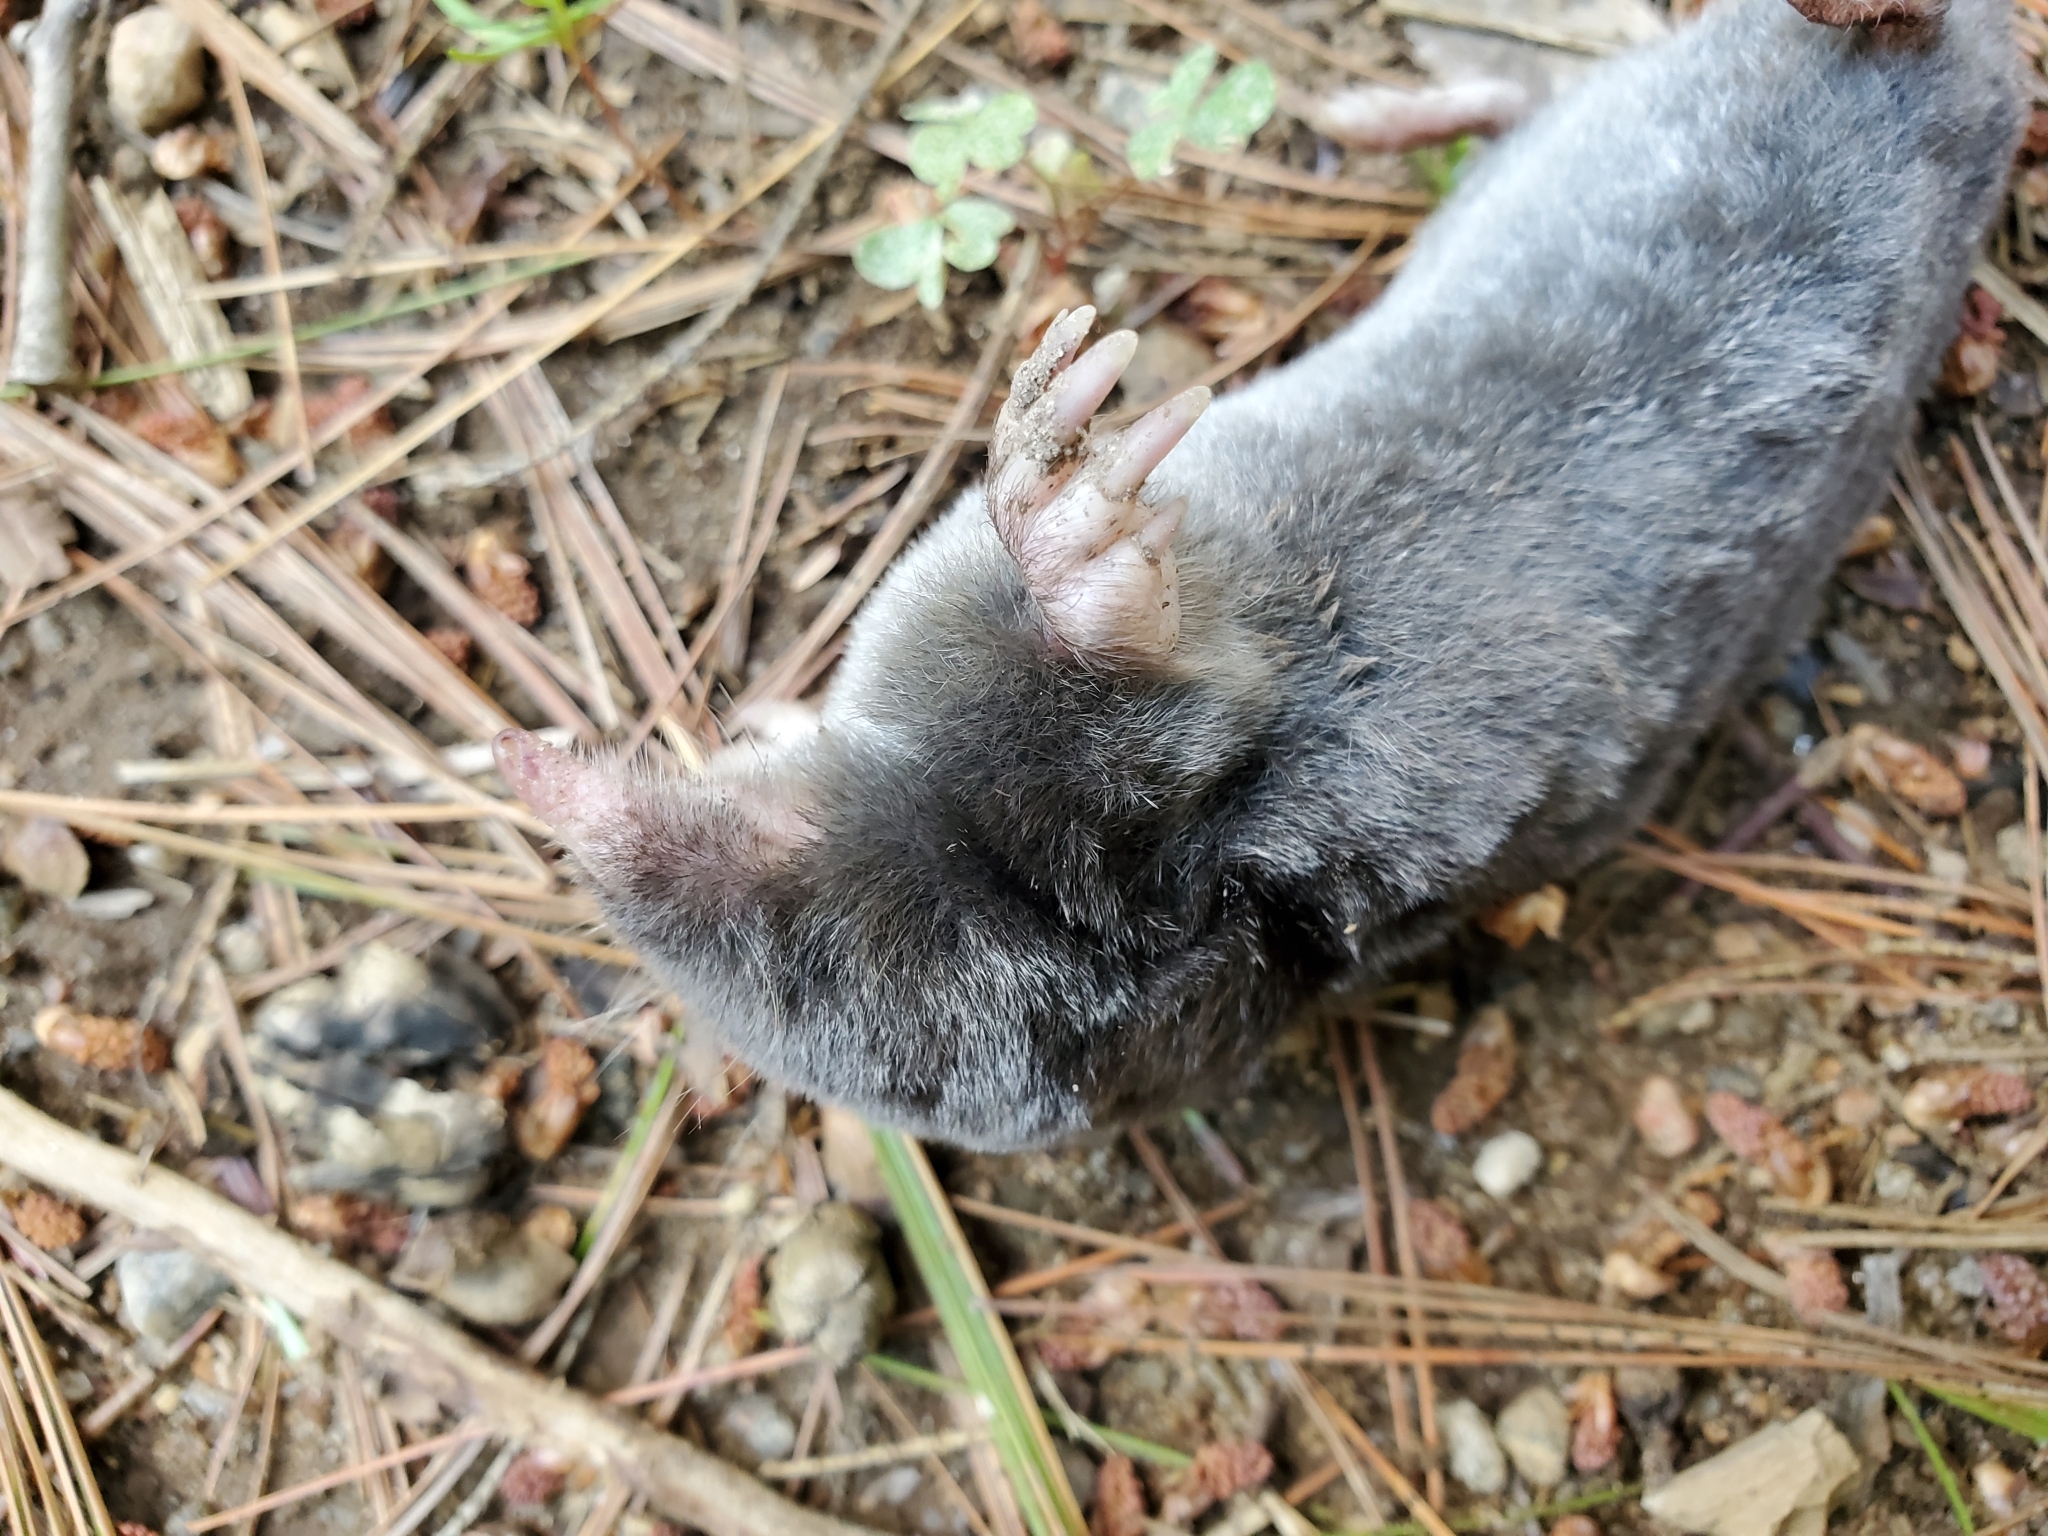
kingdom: Animalia
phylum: Chordata
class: Mammalia
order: Soricomorpha
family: Talpidae
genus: Parascalops
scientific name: Parascalops breweri
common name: Hairy-tailed mole
